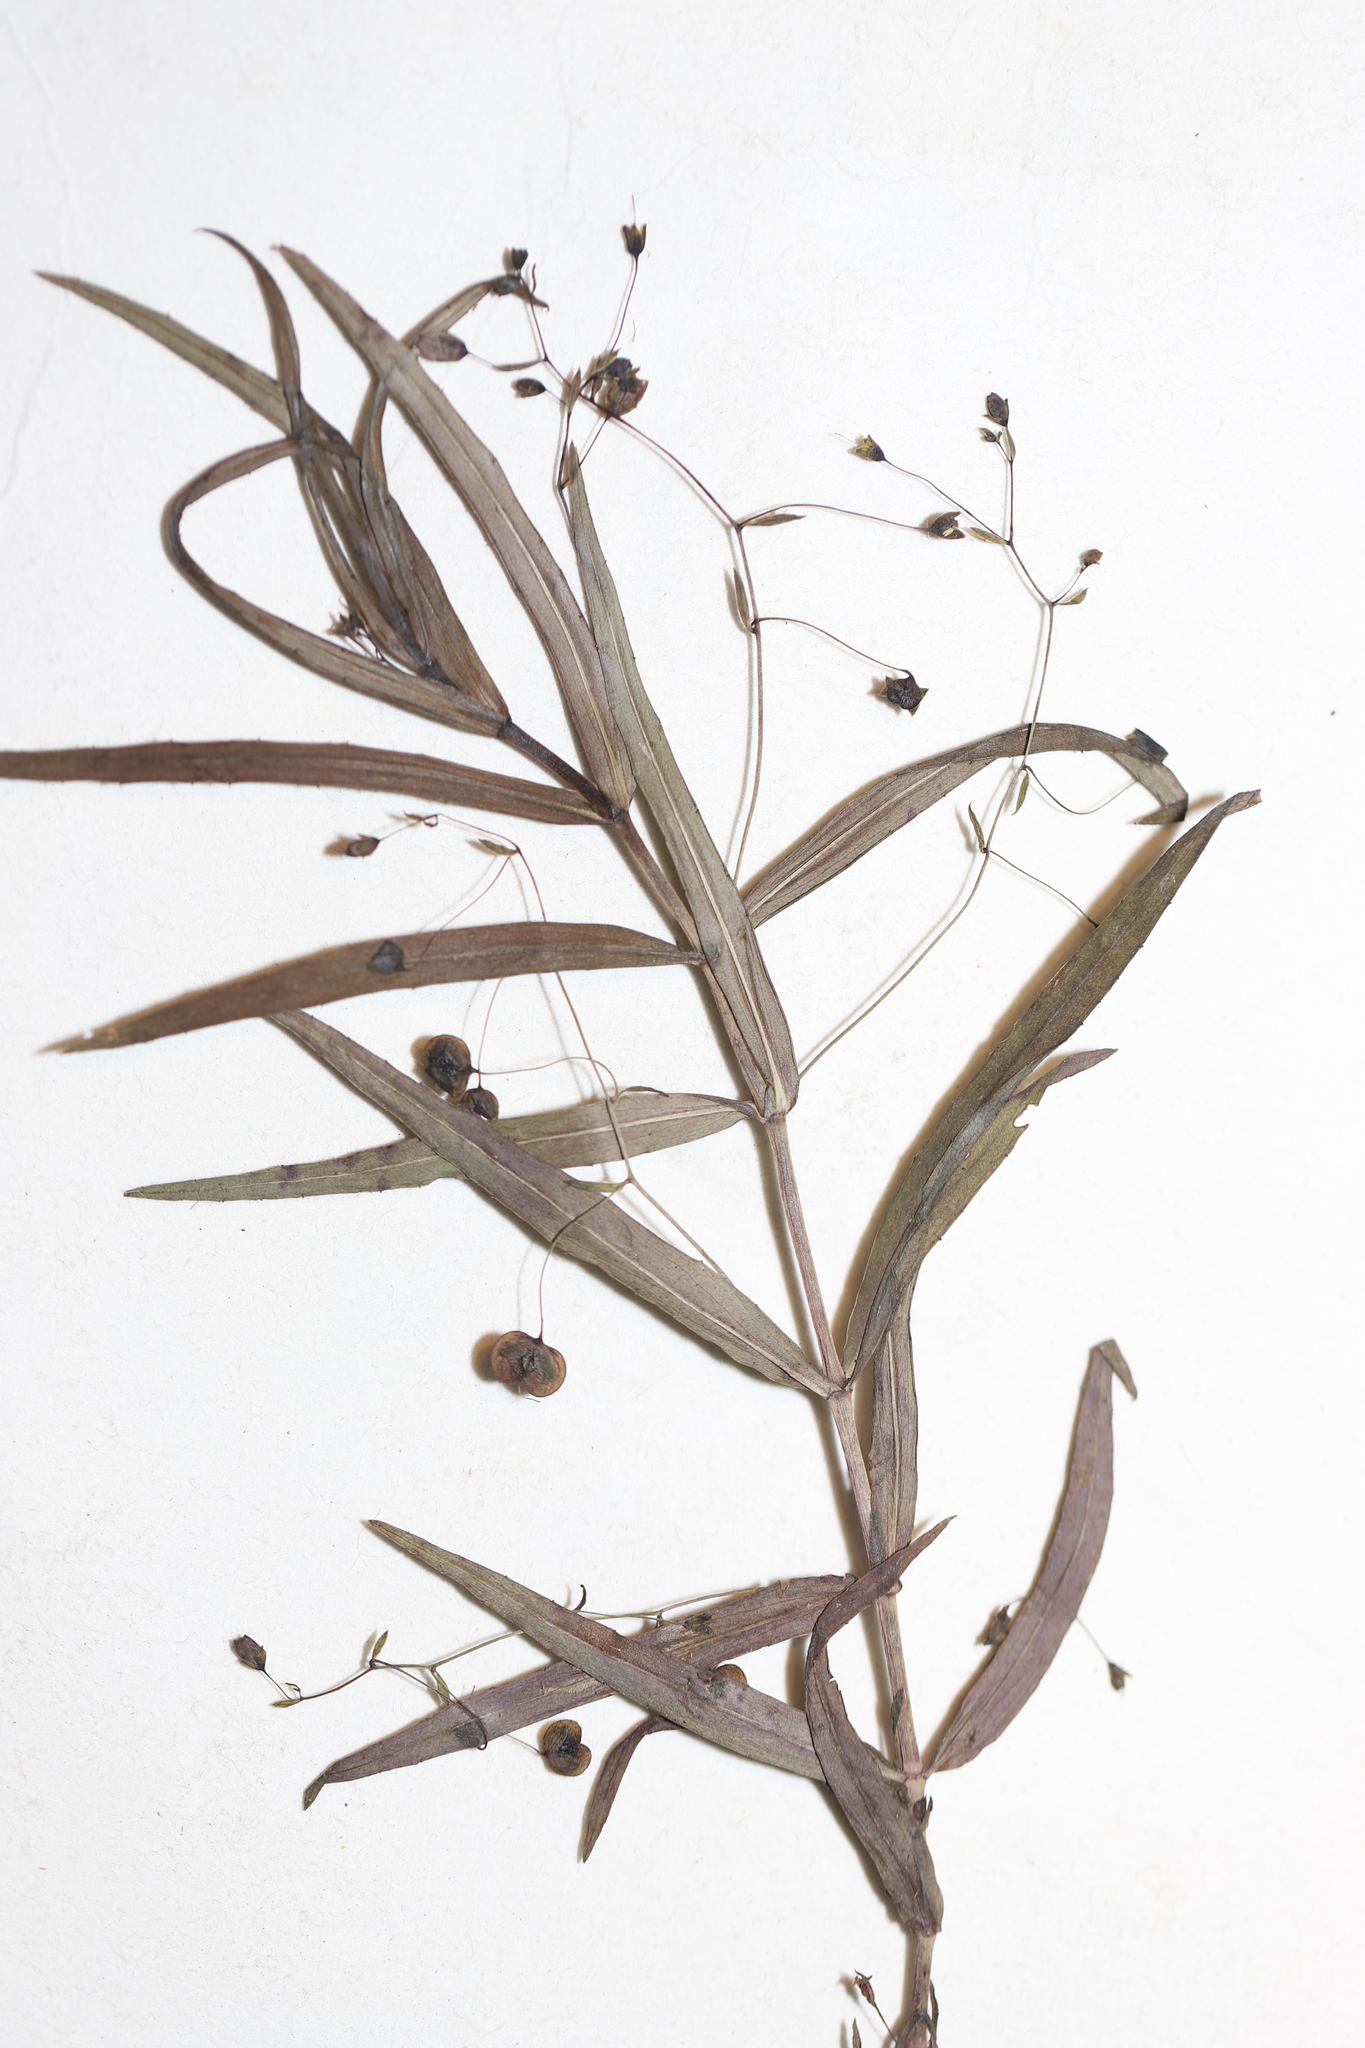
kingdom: Plantae
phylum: Tracheophyta
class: Magnoliopsida
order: Lamiales
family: Plantaginaceae
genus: Veronica
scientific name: Veronica scutellata
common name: Marsh speedwell
